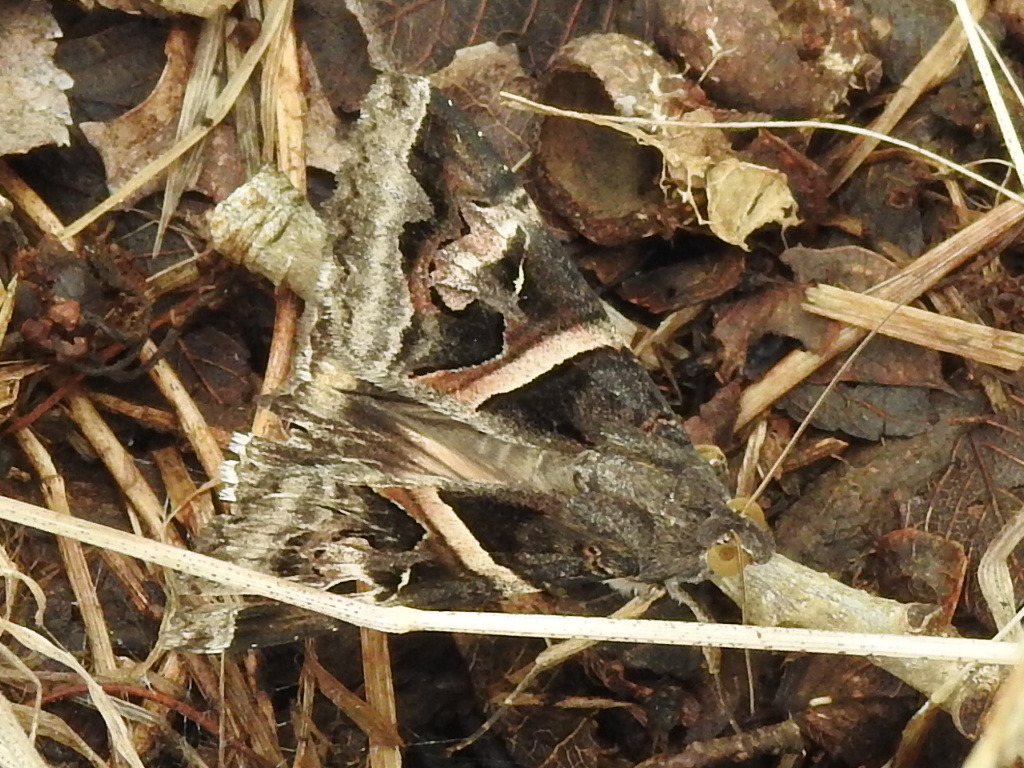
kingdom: Animalia
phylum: Arthropoda
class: Insecta
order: Lepidoptera
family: Erebidae
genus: Melipotis
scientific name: Melipotis indomita
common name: Moth
